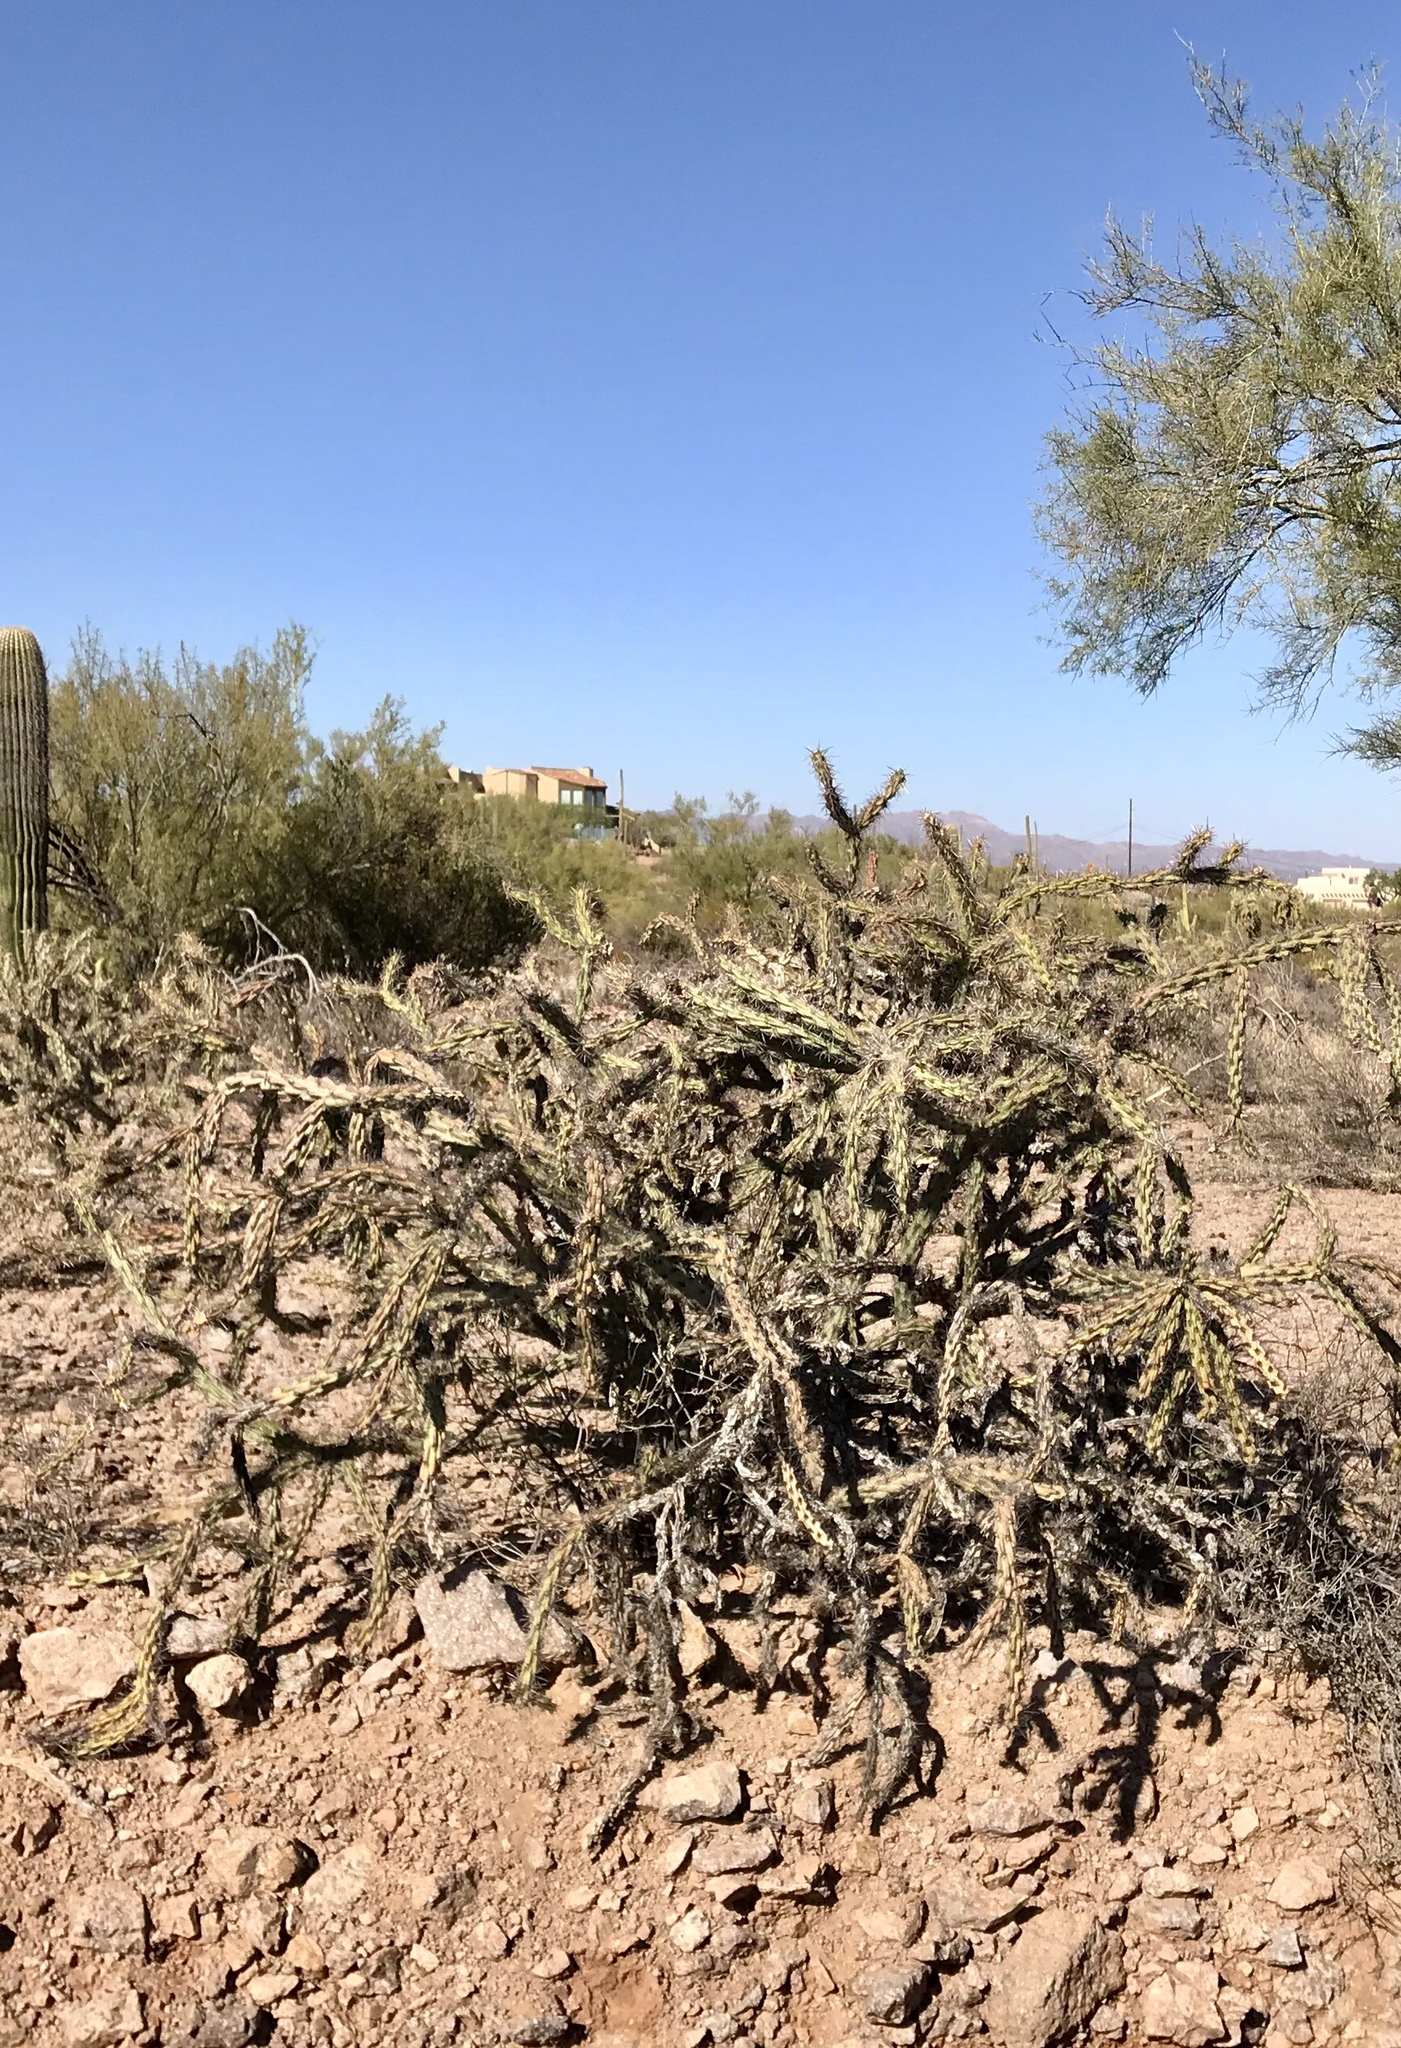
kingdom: Plantae
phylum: Tracheophyta
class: Magnoliopsida
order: Caryophyllales
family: Cactaceae
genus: Cylindropuntia
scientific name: Cylindropuntia acanthocarpa
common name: Buckhorn cholla
